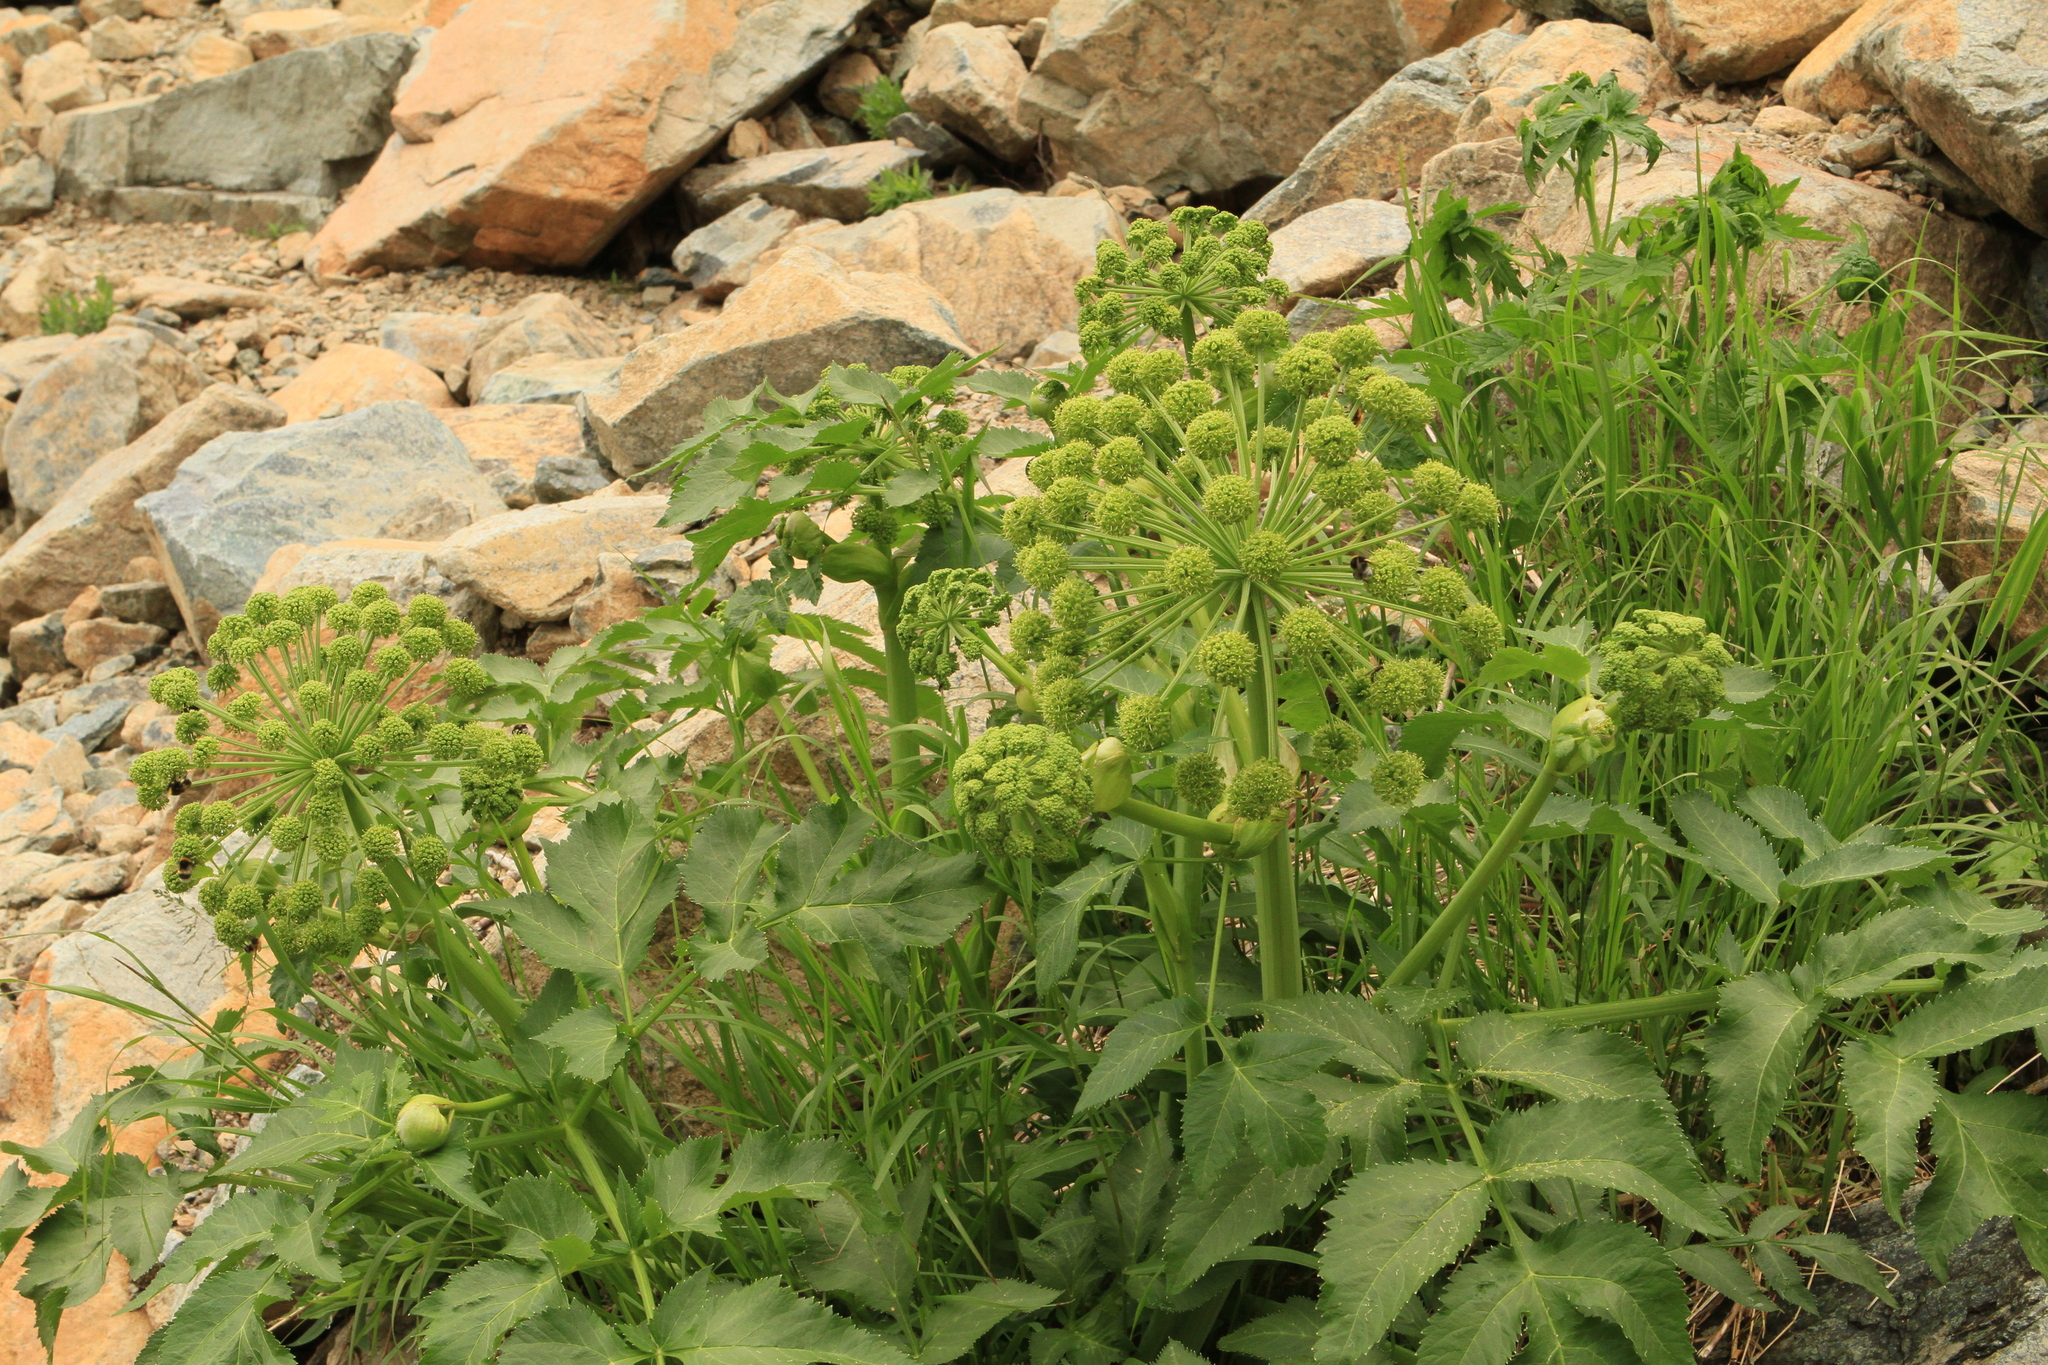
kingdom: Plantae
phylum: Tracheophyta
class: Magnoliopsida
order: Apiales
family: Apiaceae
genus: Angelica
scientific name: Angelica decurrens
